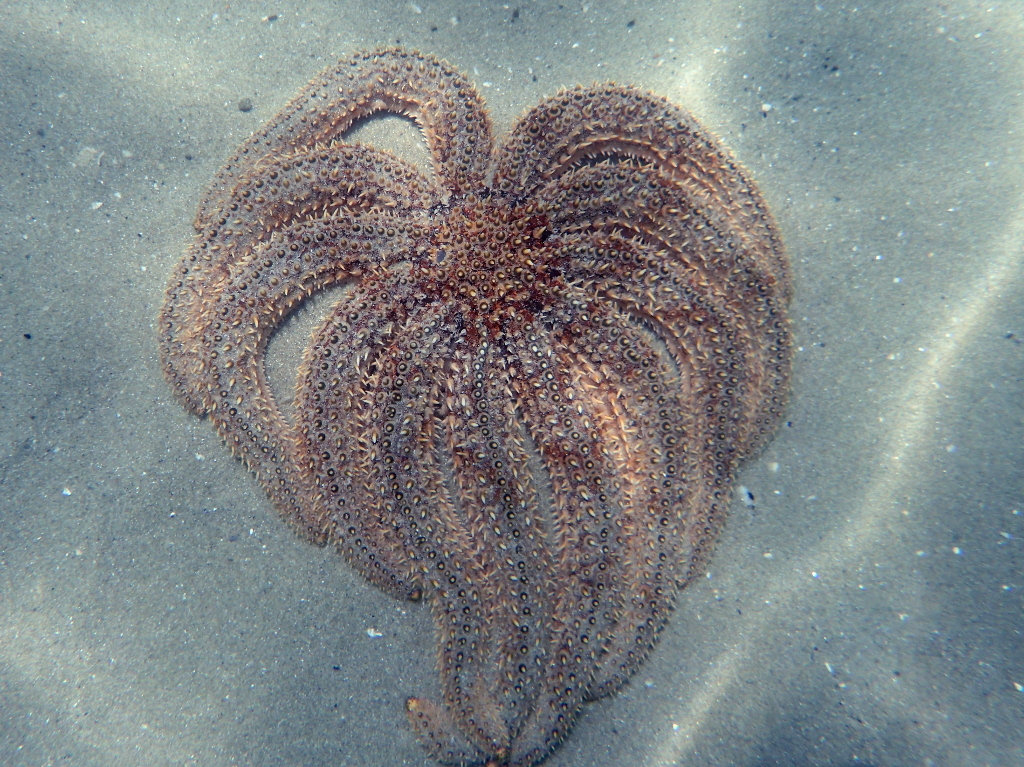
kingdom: Animalia
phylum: Echinodermata
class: Asteroidea
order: Forcipulatida
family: Asteriidae
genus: Coscinasterias
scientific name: Coscinasterias muricata
